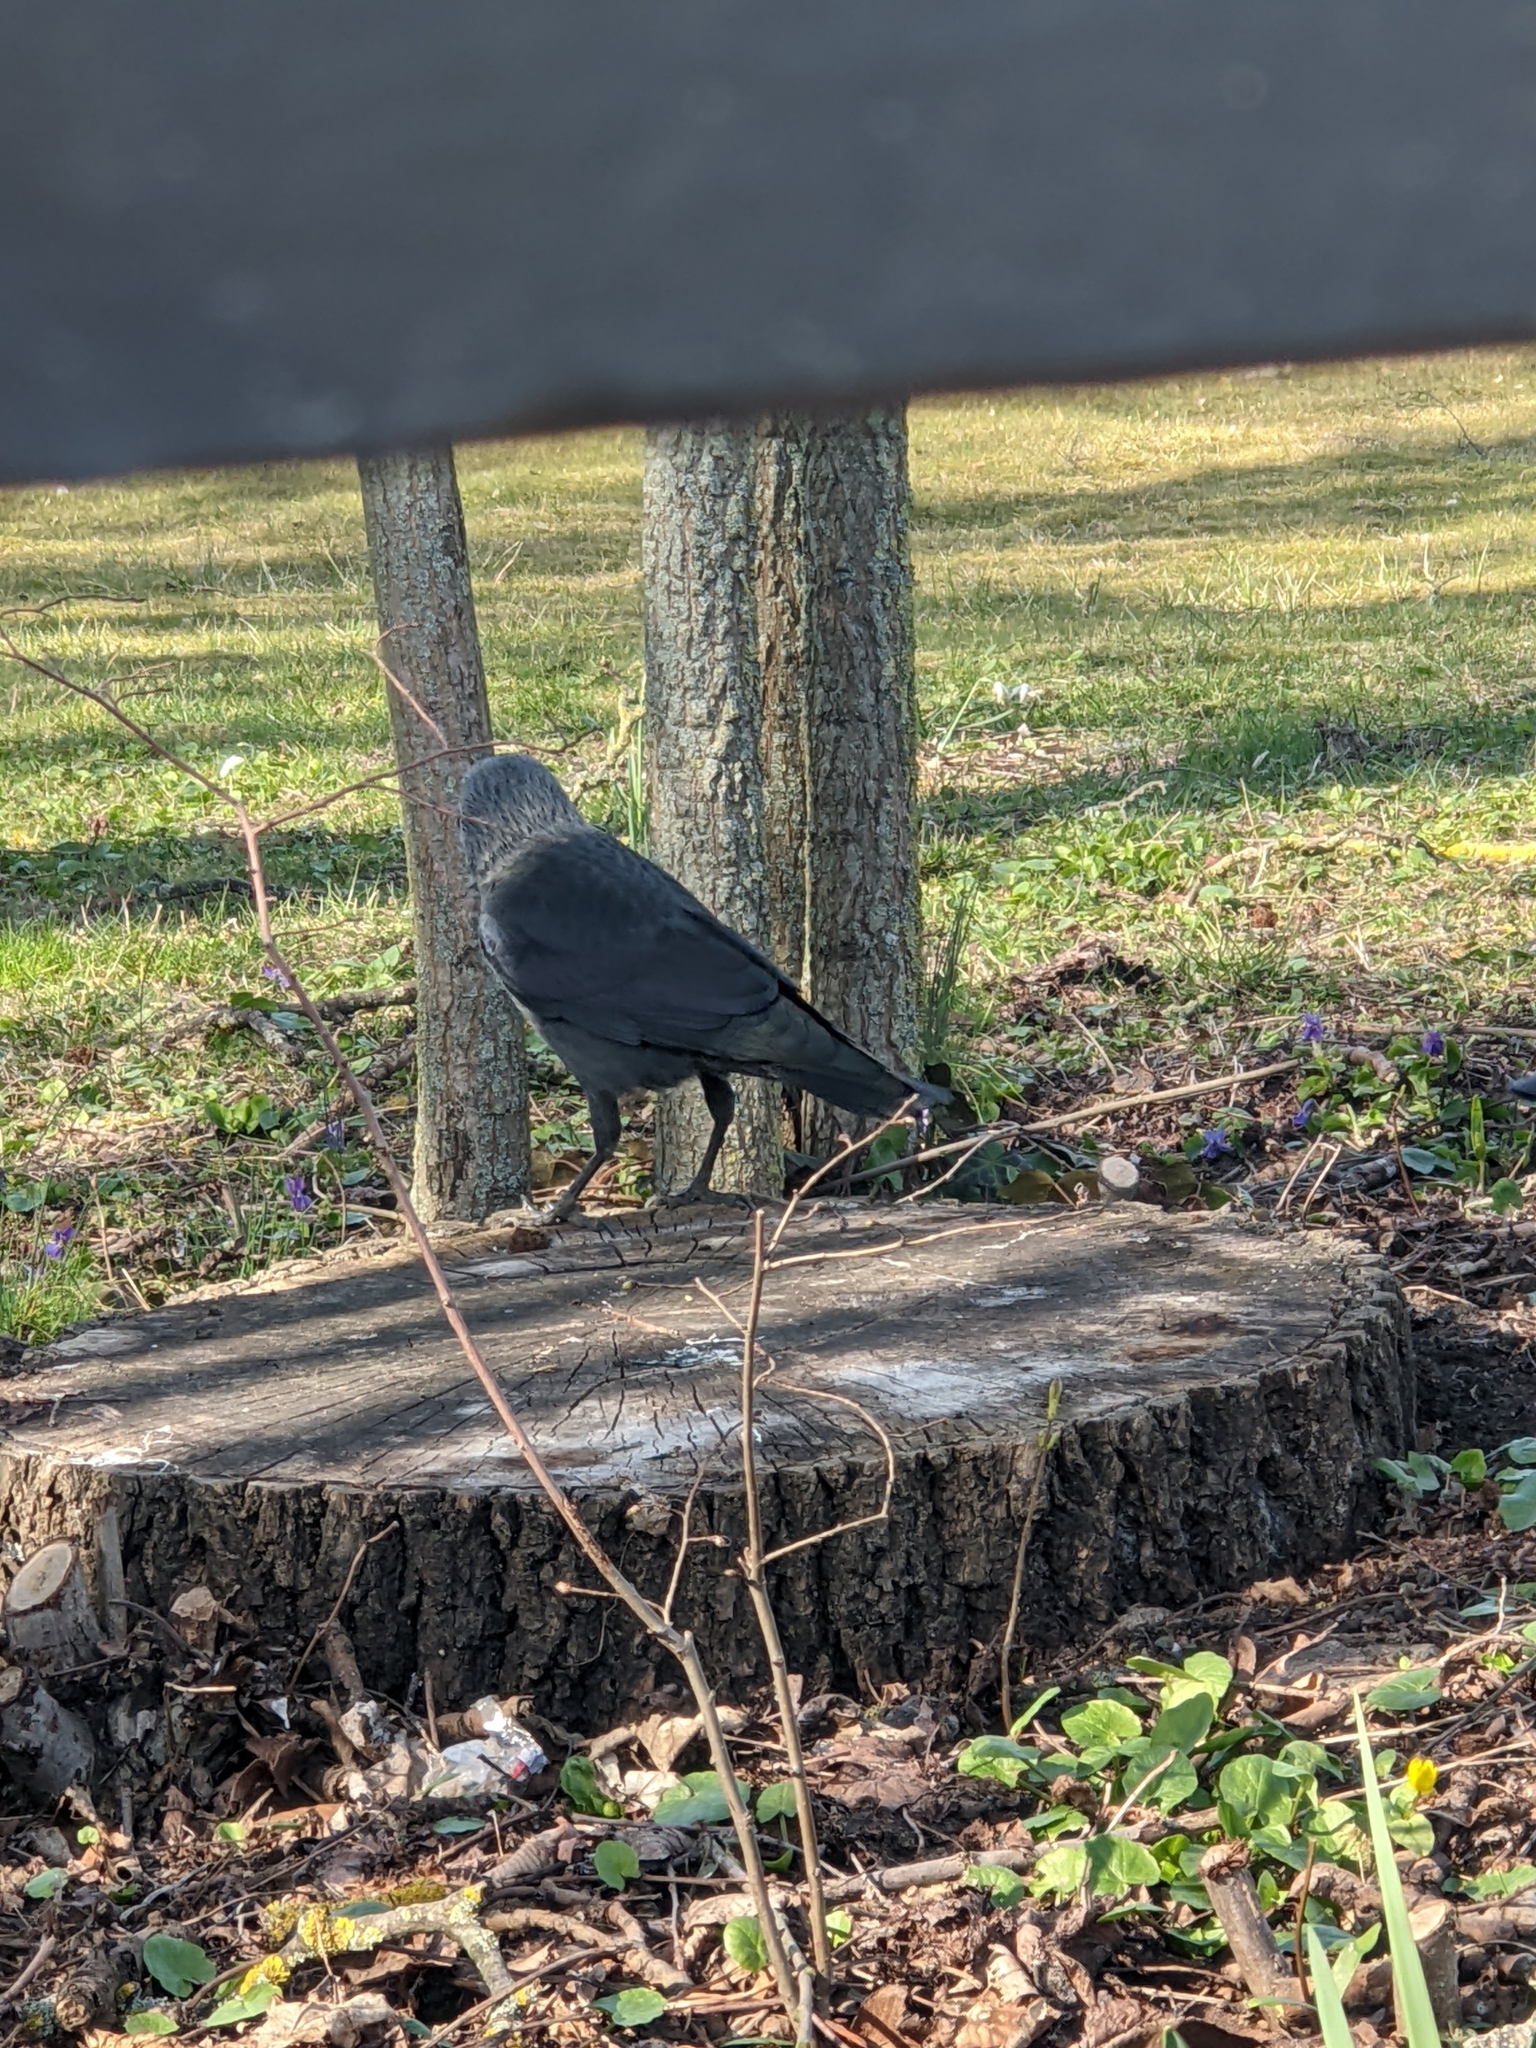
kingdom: Animalia
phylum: Chordata
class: Aves
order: Passeriformes
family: Corvidae
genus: Coloeus
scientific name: Coloeus monedula
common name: Western jackdaw
